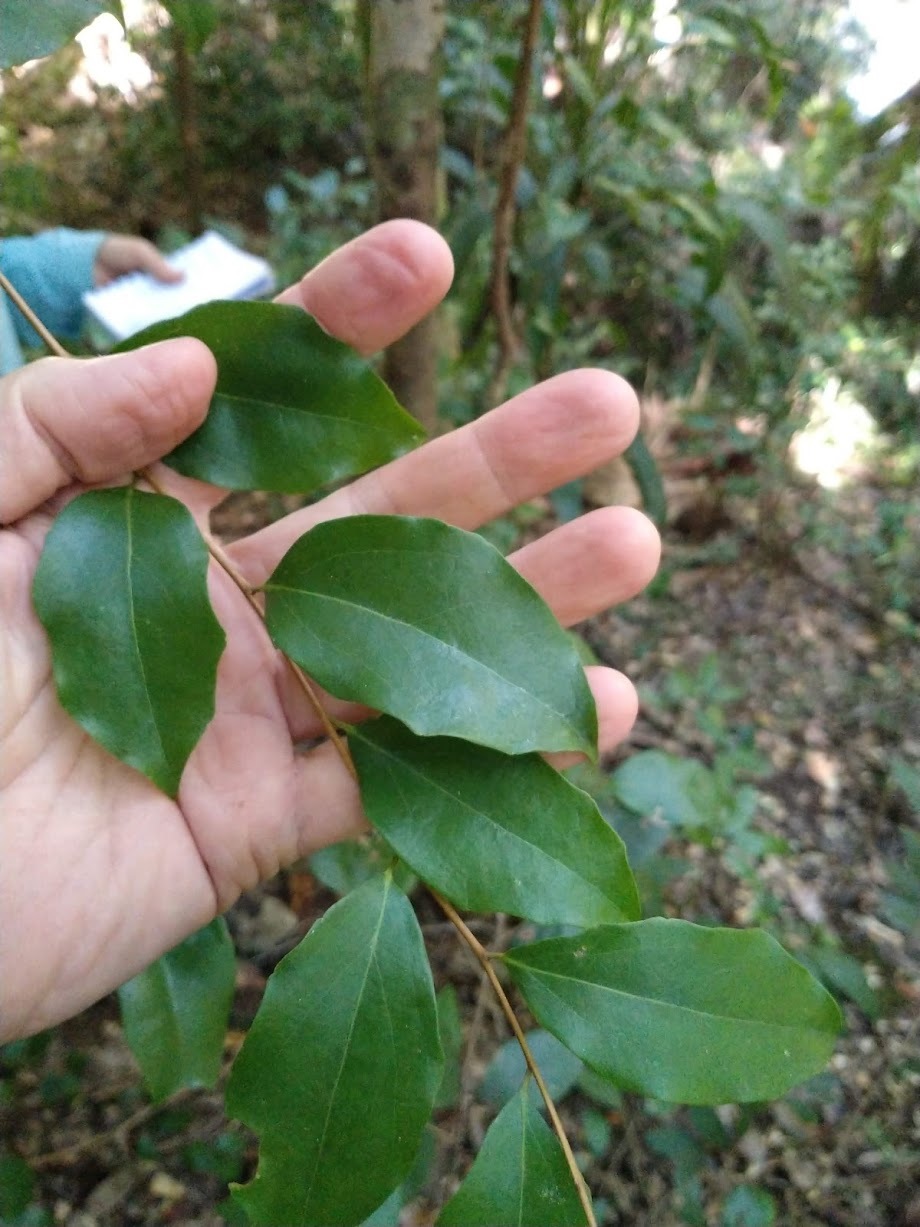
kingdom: Plantae
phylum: Tracheophyta
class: Magnoliopsida
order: Malpighiales
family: Salicaceae
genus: Scolopia
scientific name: Scolopia braunii
